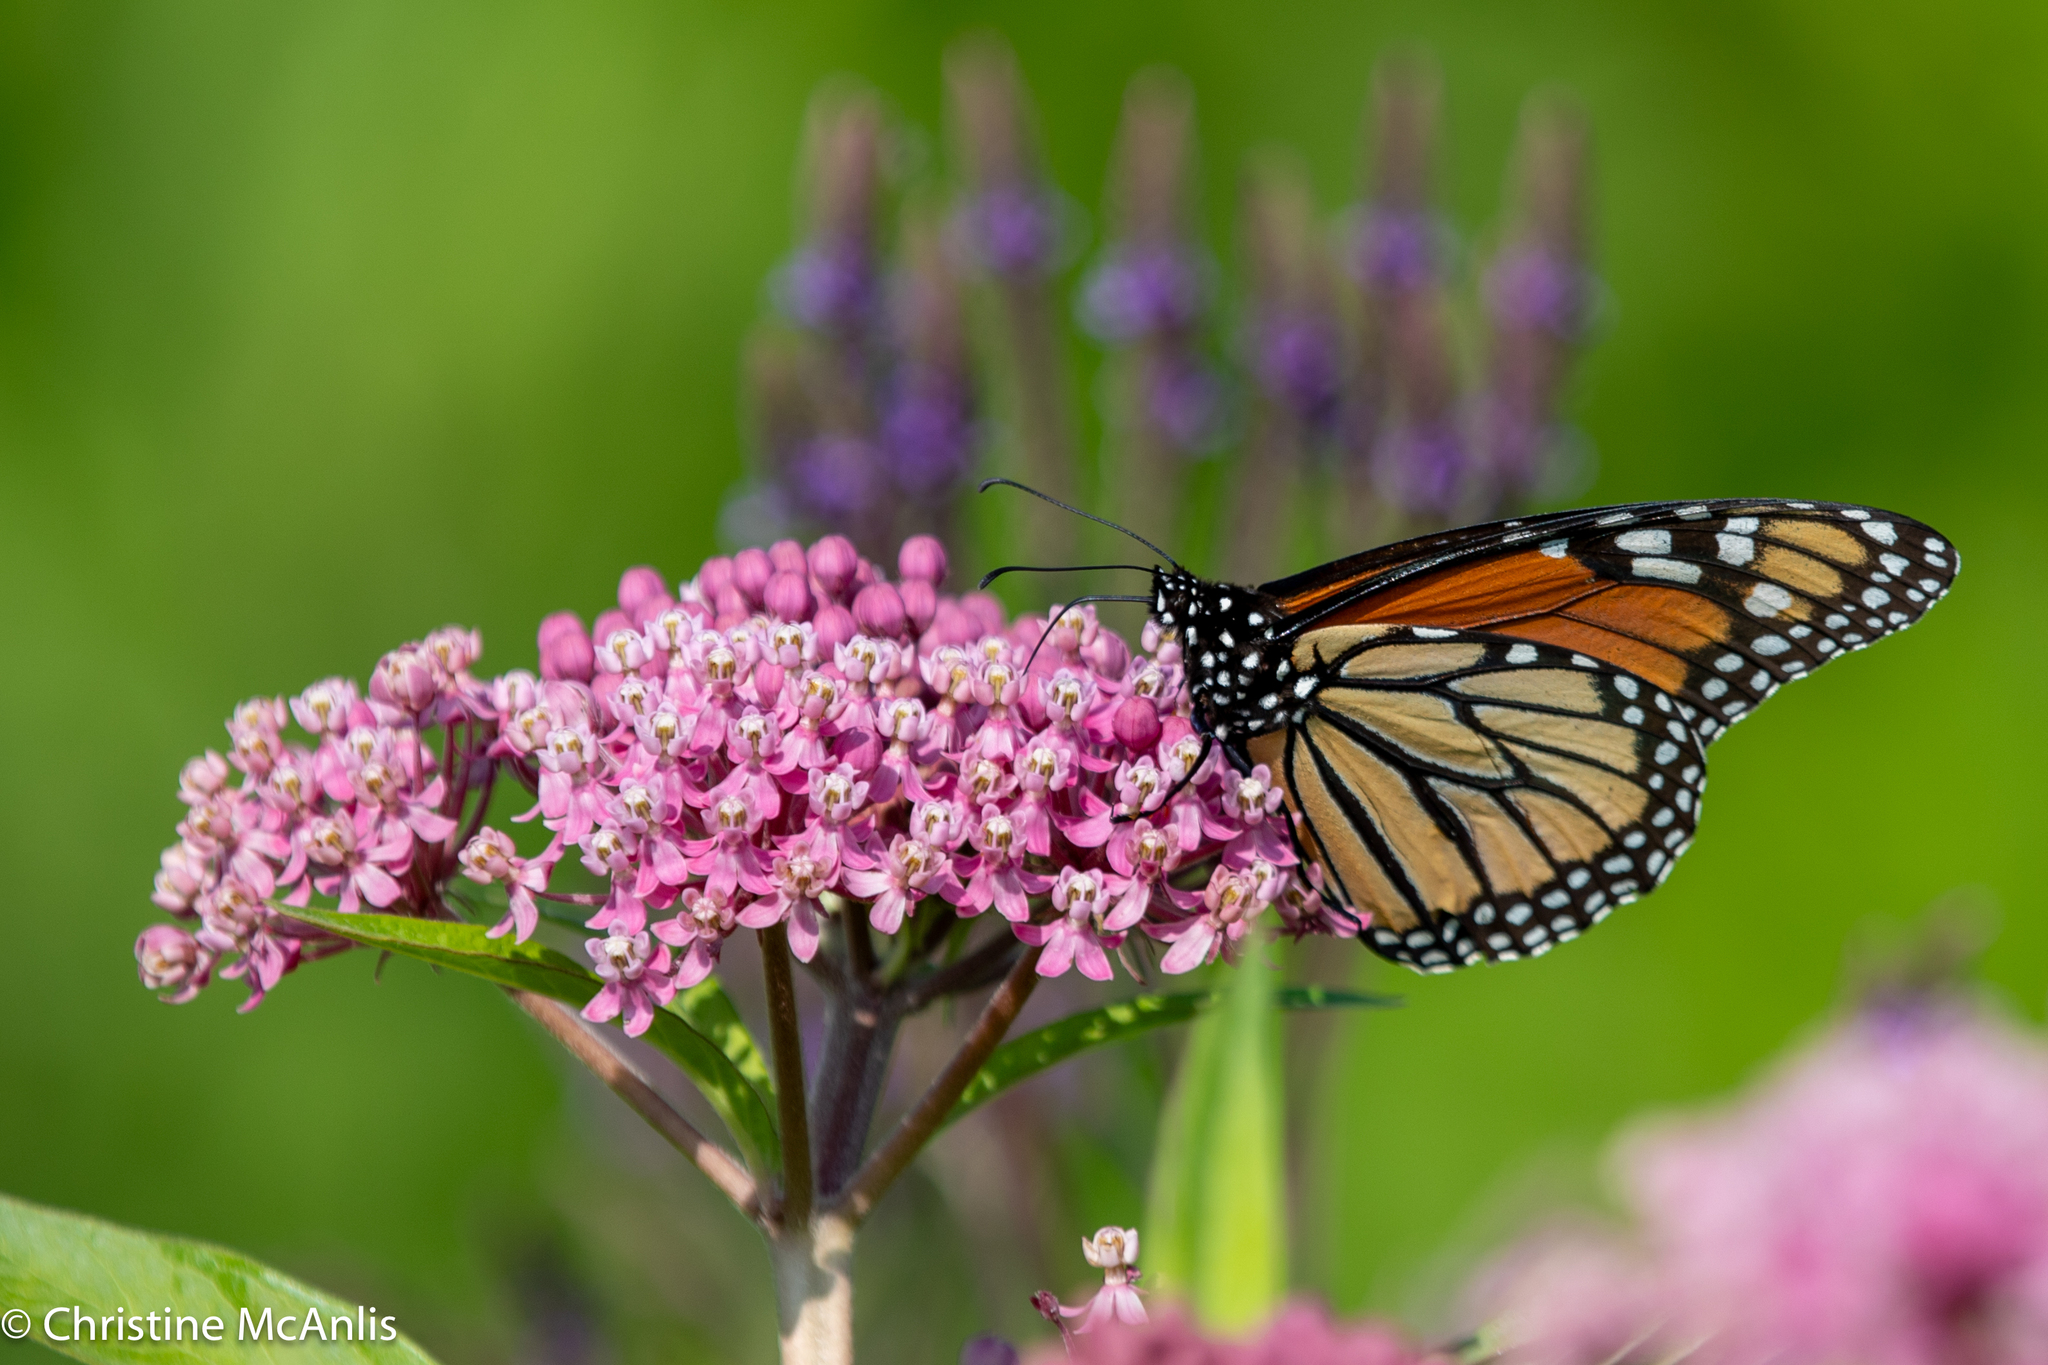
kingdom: Animalia
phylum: Arthropoda
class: Insecta
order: Lepidoptera
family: Nymphalidae
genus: Danaus
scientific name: Danaus plexippus
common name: Monarch
